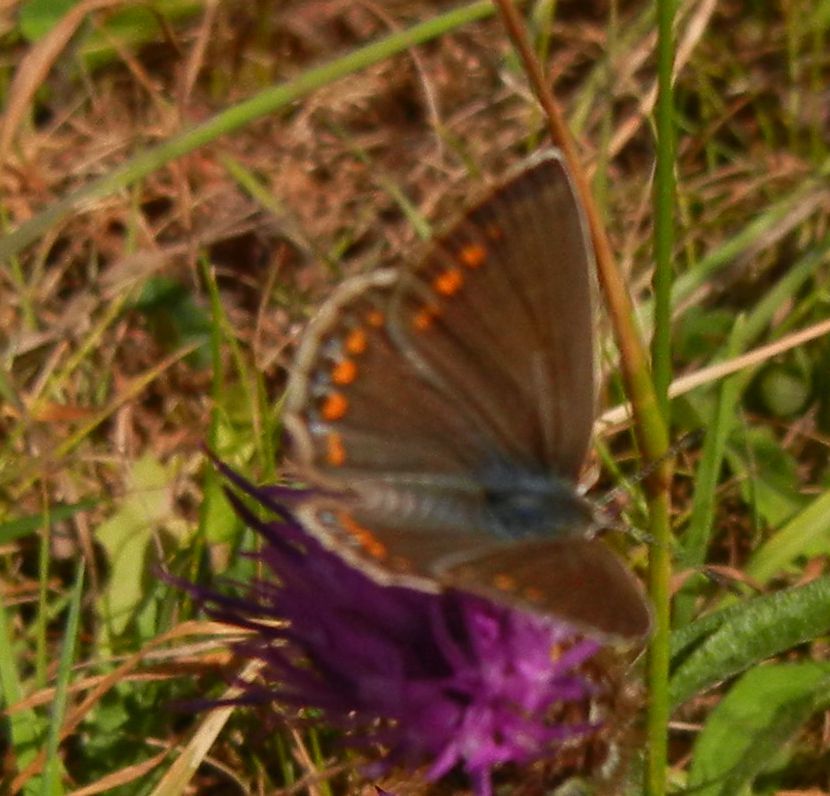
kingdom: Animalia
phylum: Arthropoda
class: Insecta
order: Lepidoptera
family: Lycaenidae
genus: Polyommatus
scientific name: Polyommatus icarus
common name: Common blue
